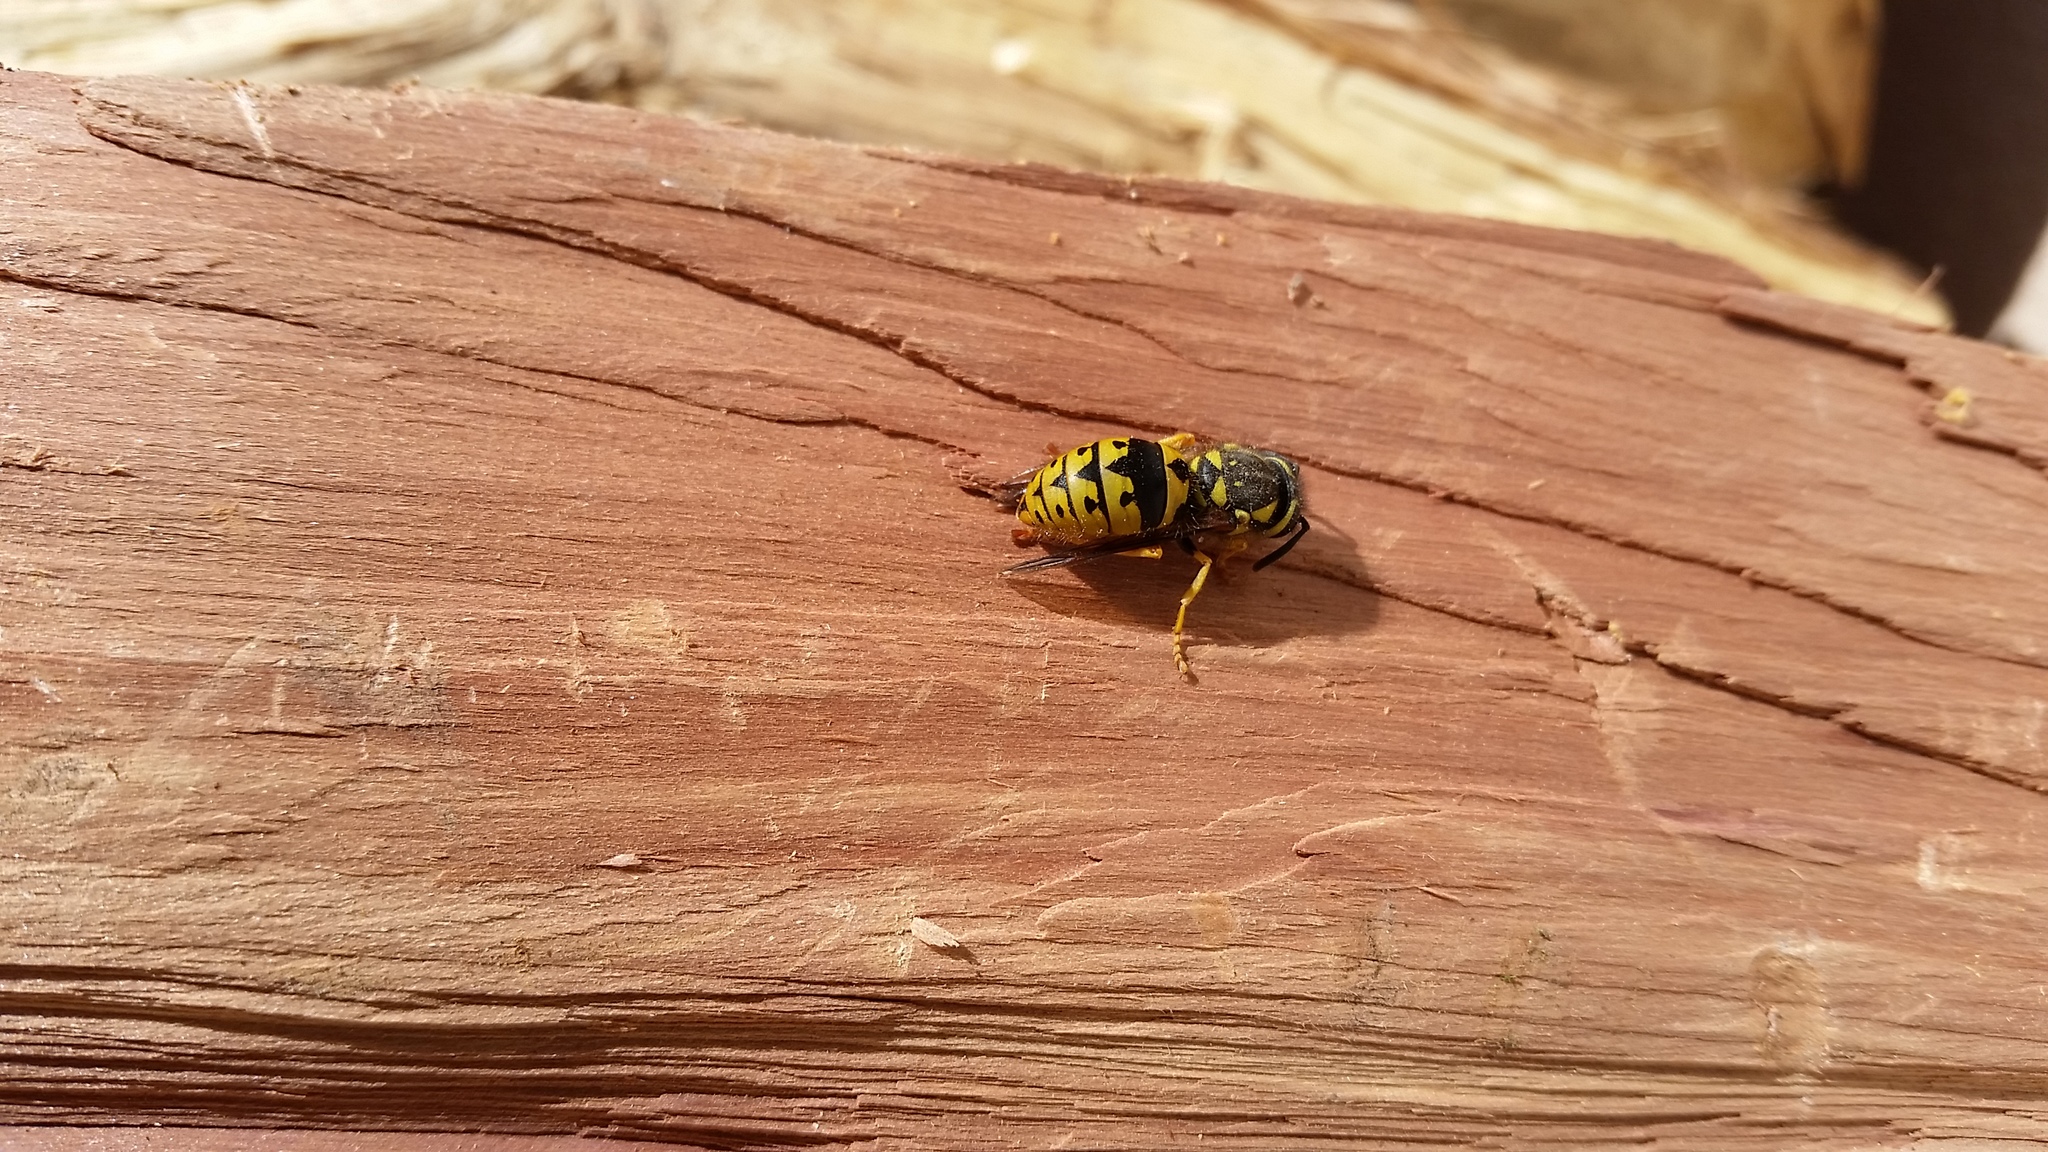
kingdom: Animalia
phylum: Arthropoda
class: Insecta
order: Hymenoptera
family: Vespidae
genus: Vespula
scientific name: Vespula pensylvanica
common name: Western yellowjacket
